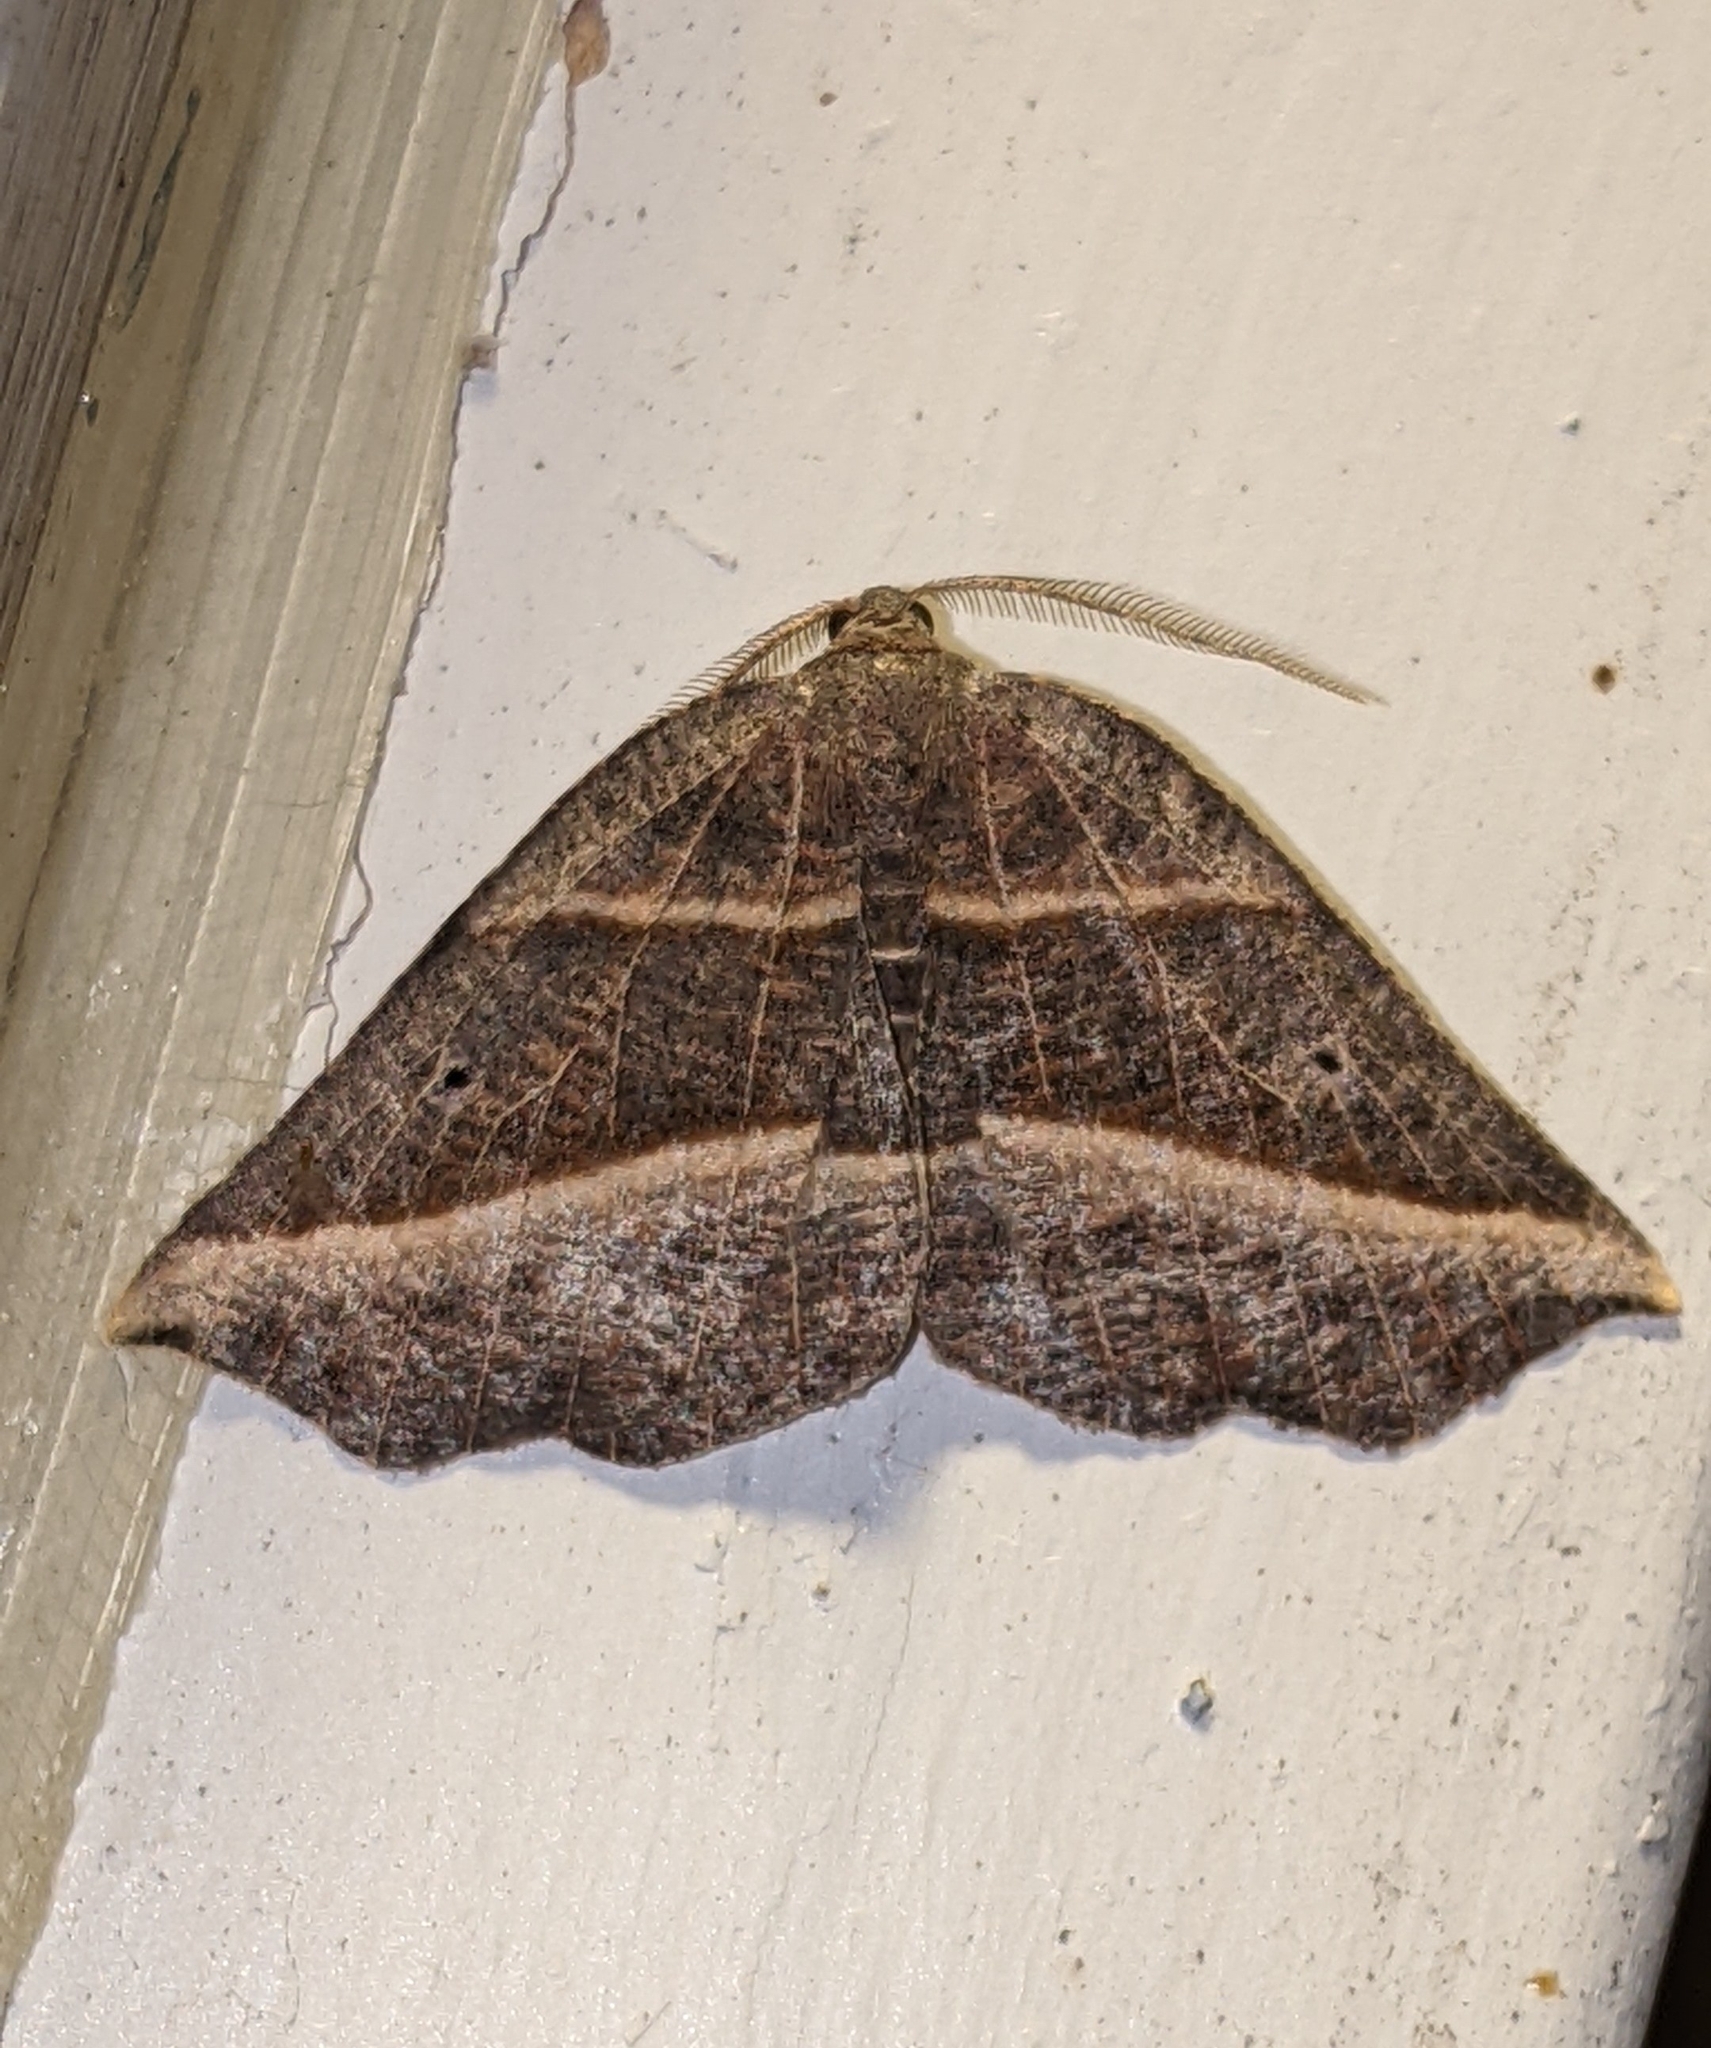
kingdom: Animalia
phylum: Arthropoda
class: Insecta
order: Lepidoptera
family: Geometridae
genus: Metanema
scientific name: Metanema determinata
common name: Dark metanema
